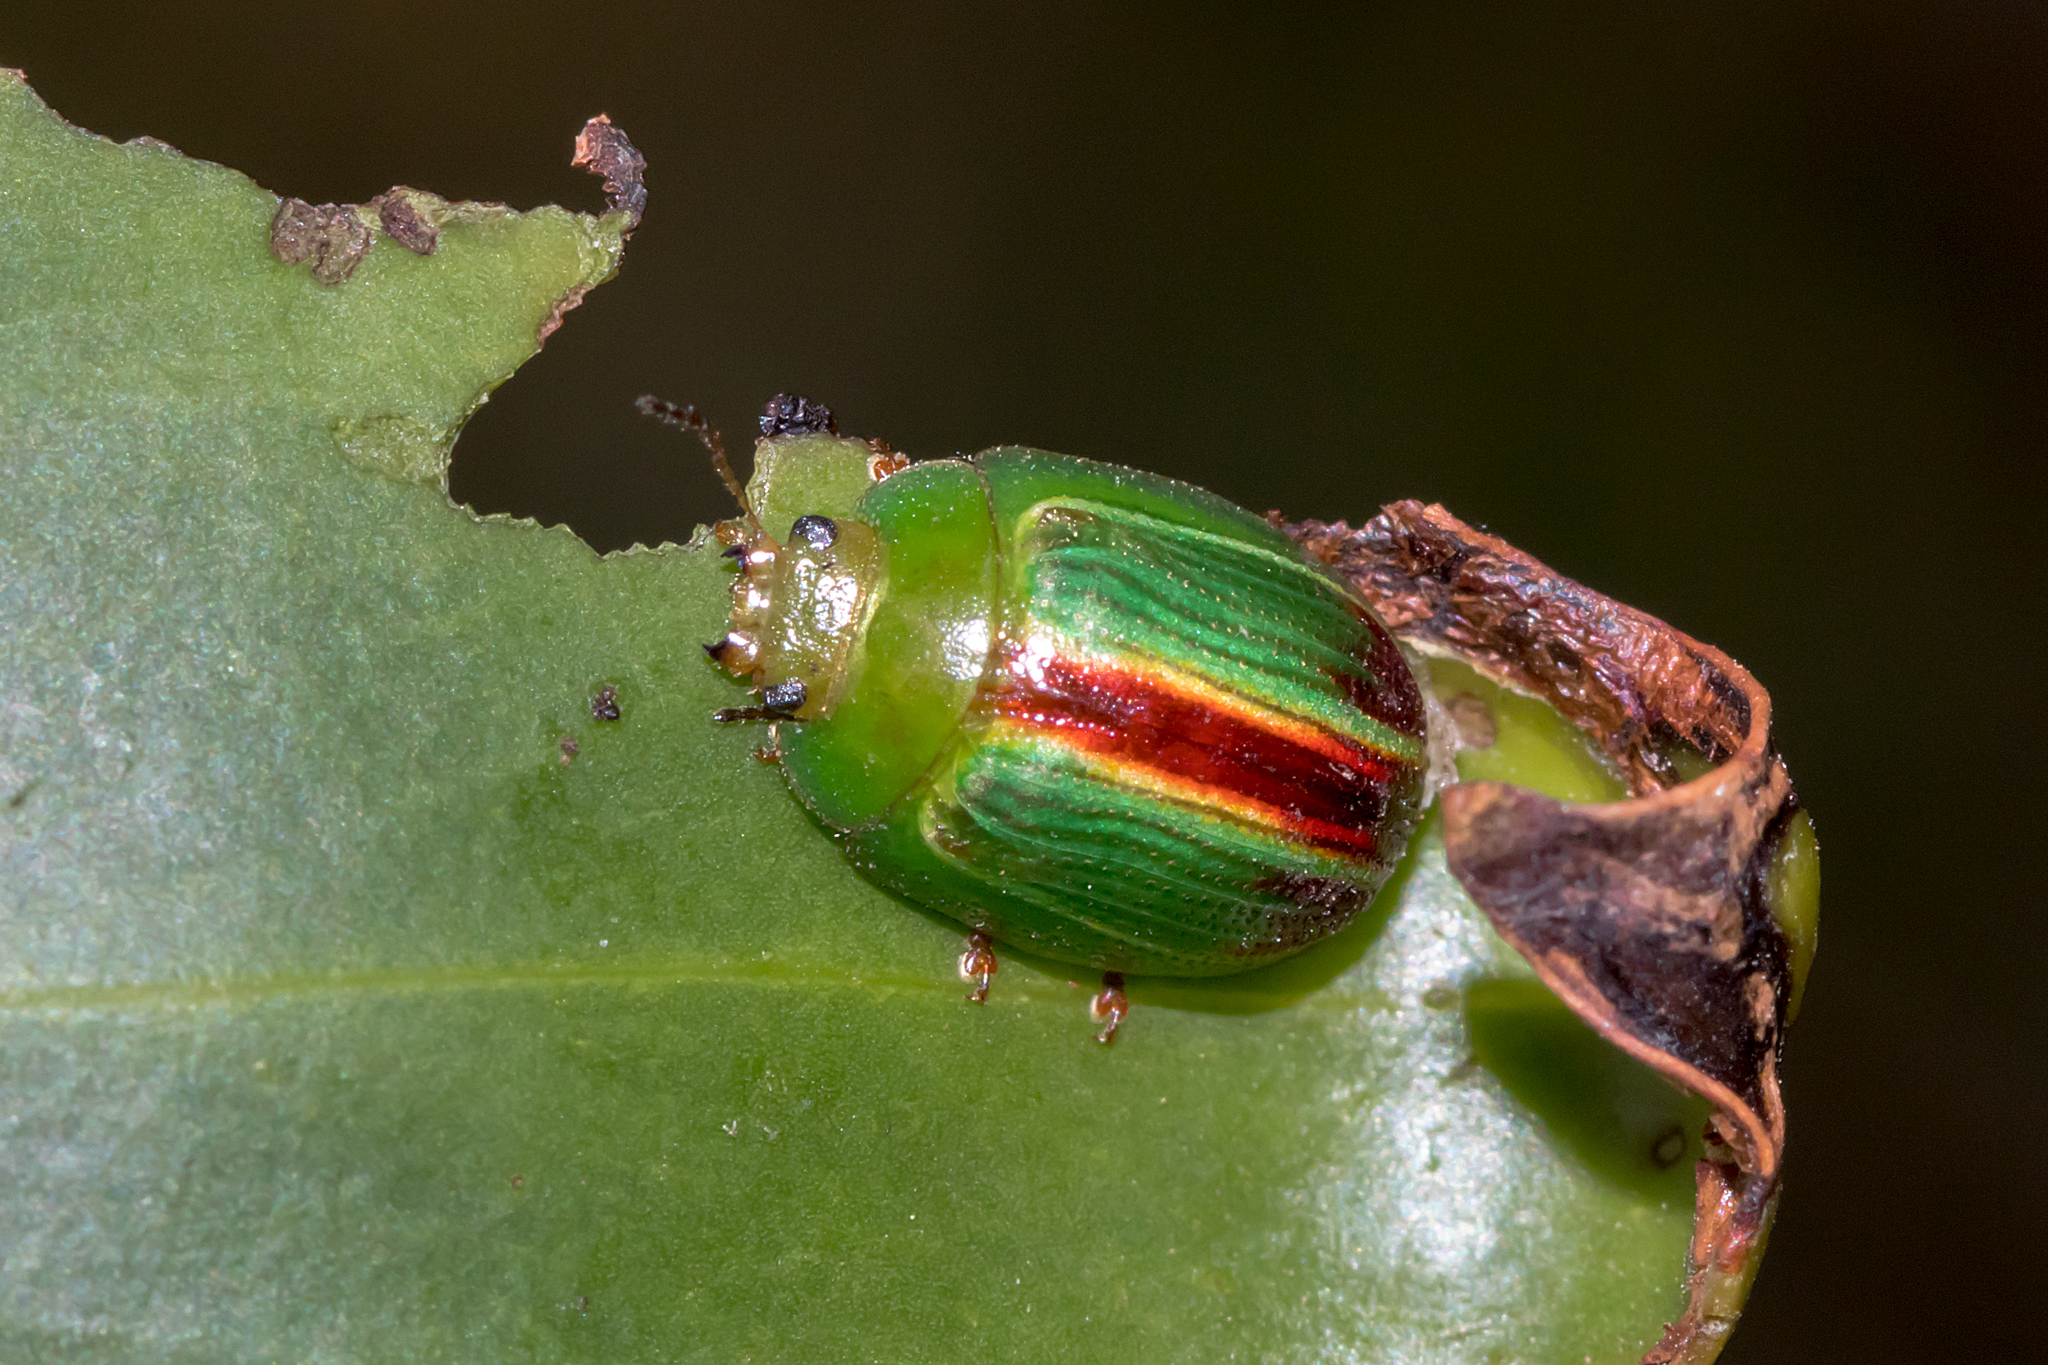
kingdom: Animalia
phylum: Arthropoda
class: Insecta
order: Coleoptera
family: Chrysomelidae
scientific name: Chrysomelidae
